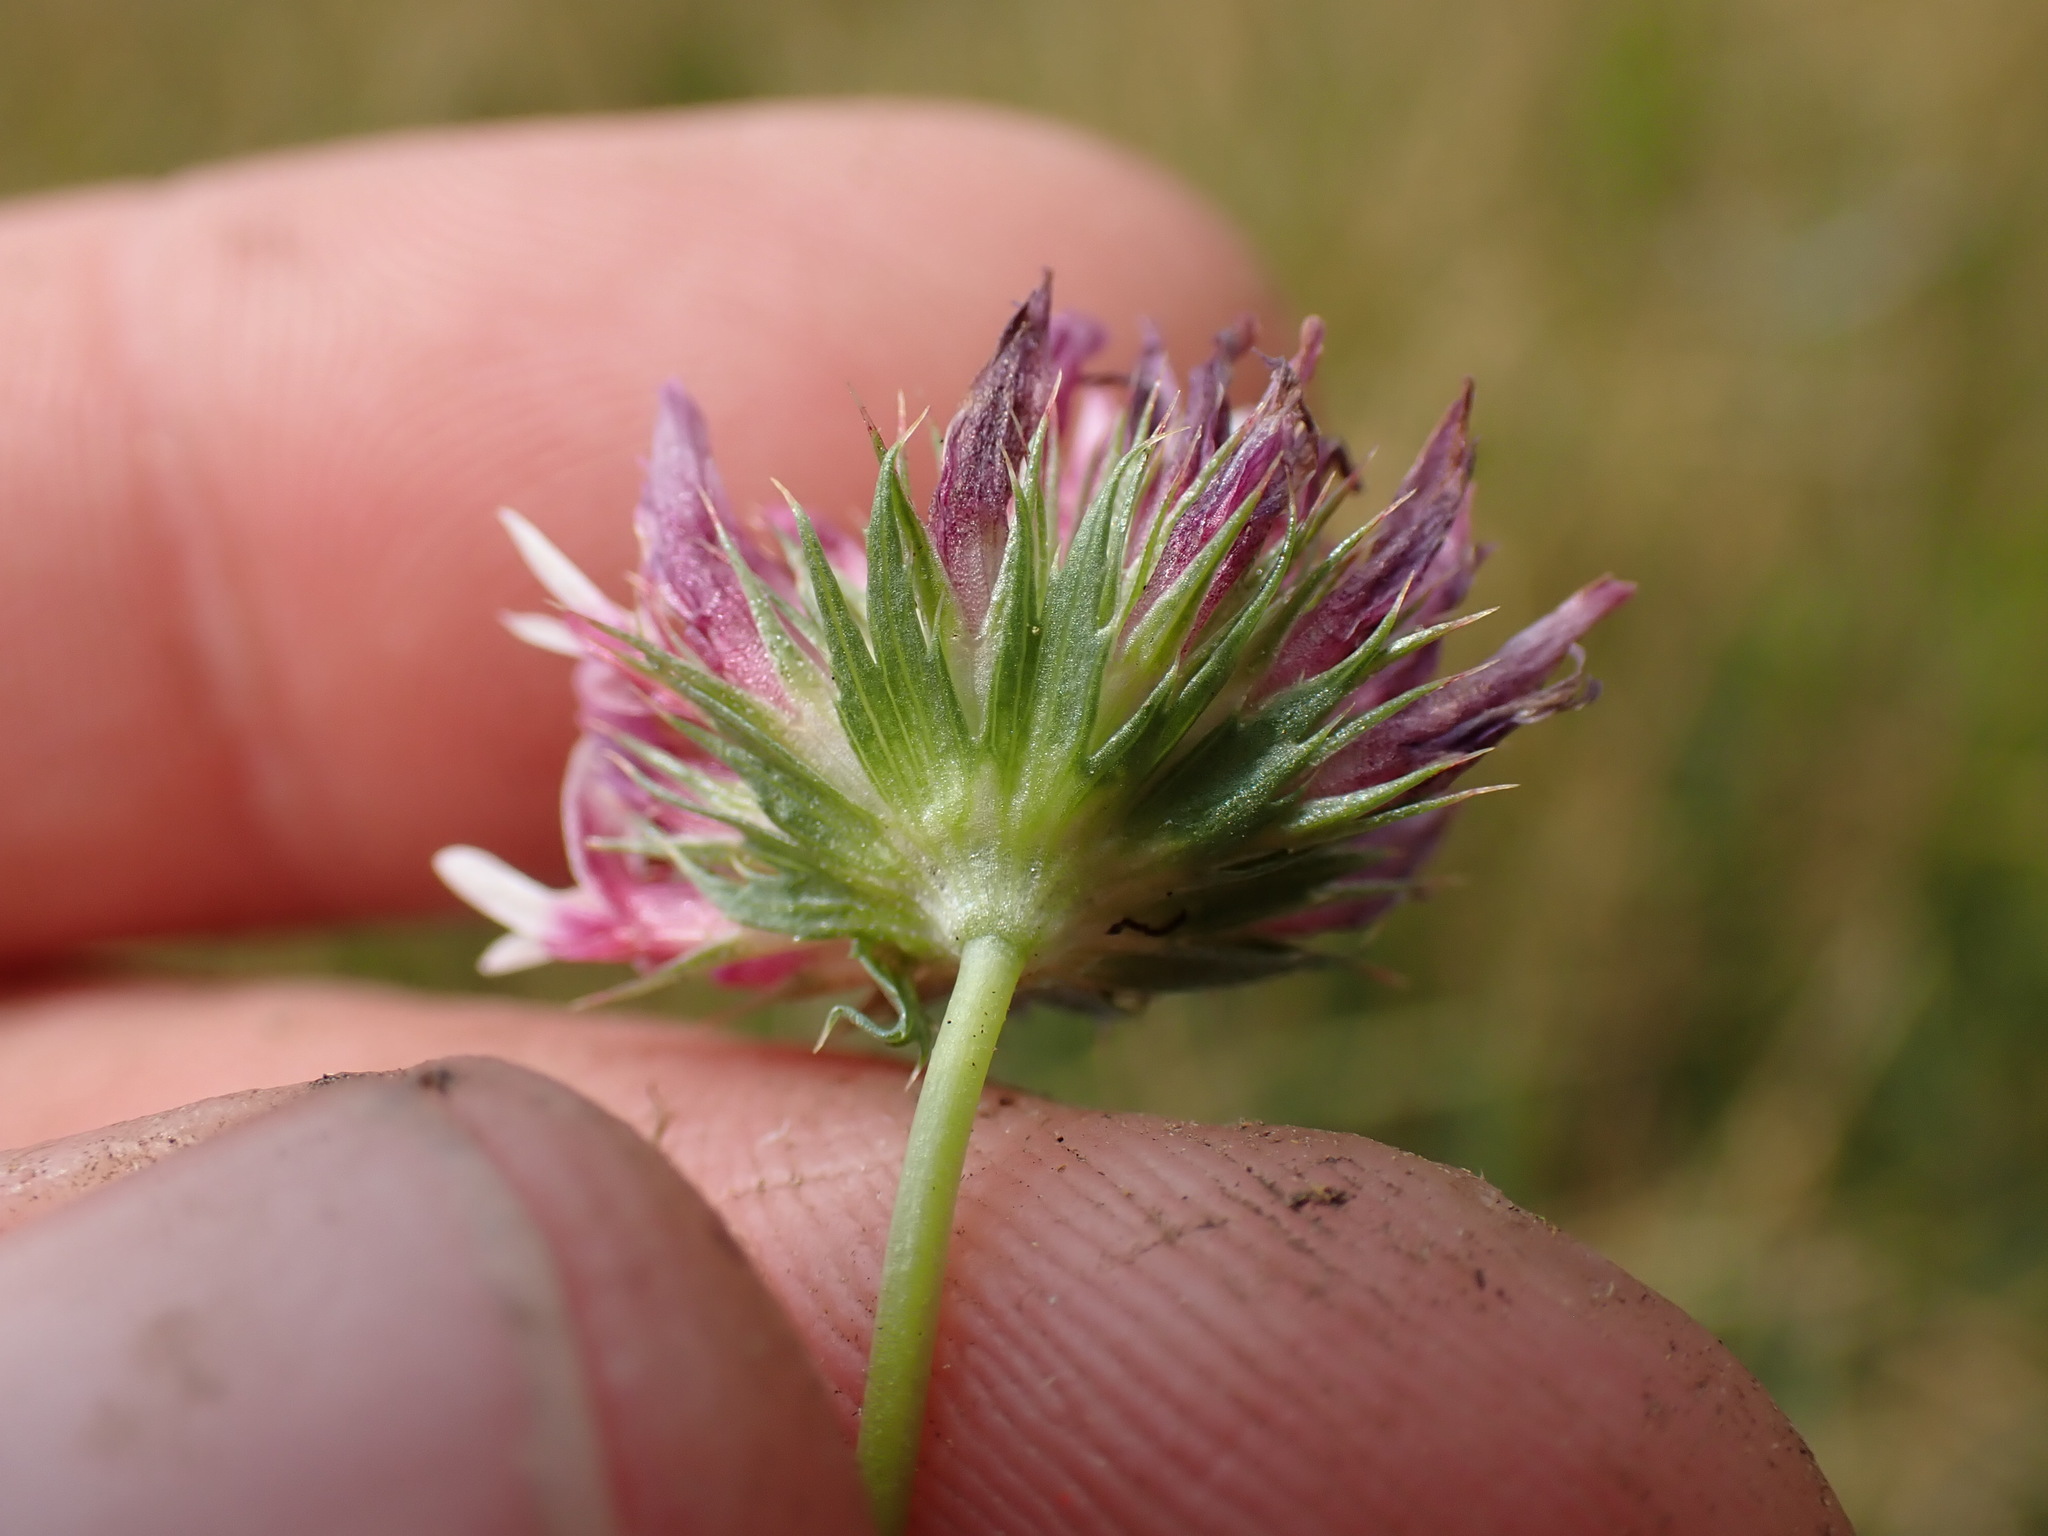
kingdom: Plantae
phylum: Tracheophyta
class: Magnoliopsida
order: Fabales
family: Fabaceae
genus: Trifolium
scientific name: Trifolium wormskioldii
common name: Springbank clover
